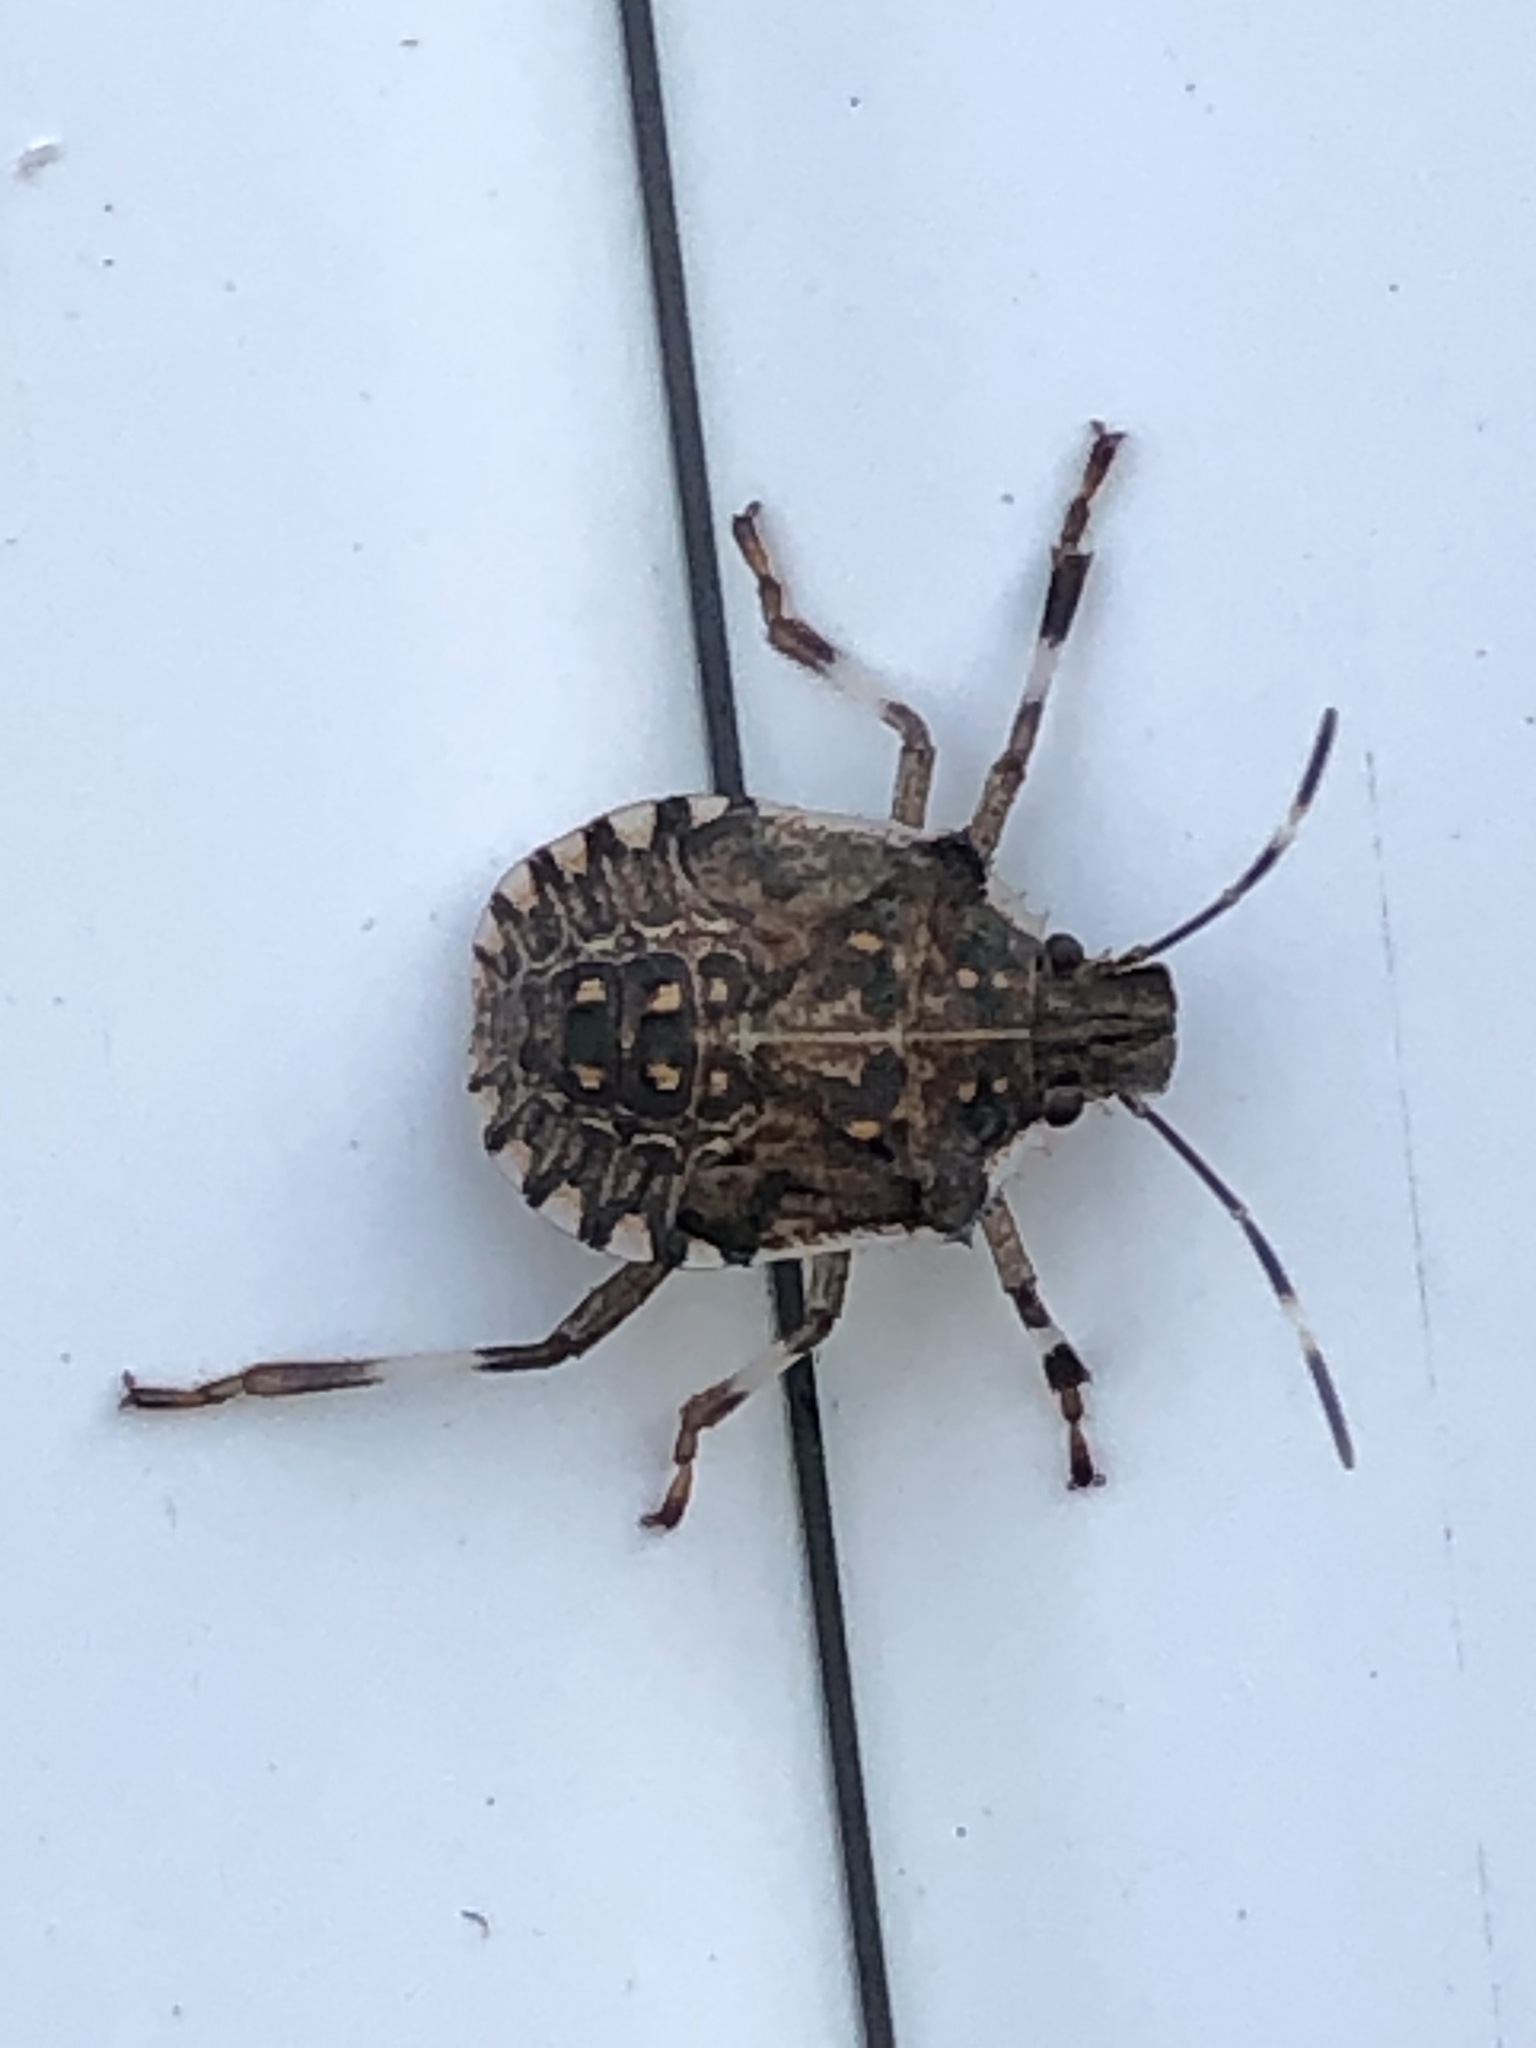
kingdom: Animalia
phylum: Arthropoda
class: Insecta
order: Hemiptera
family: Pentatomidae
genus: Halyomorpha
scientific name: Halyomorpha halys
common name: Brown marmorated stink bug
